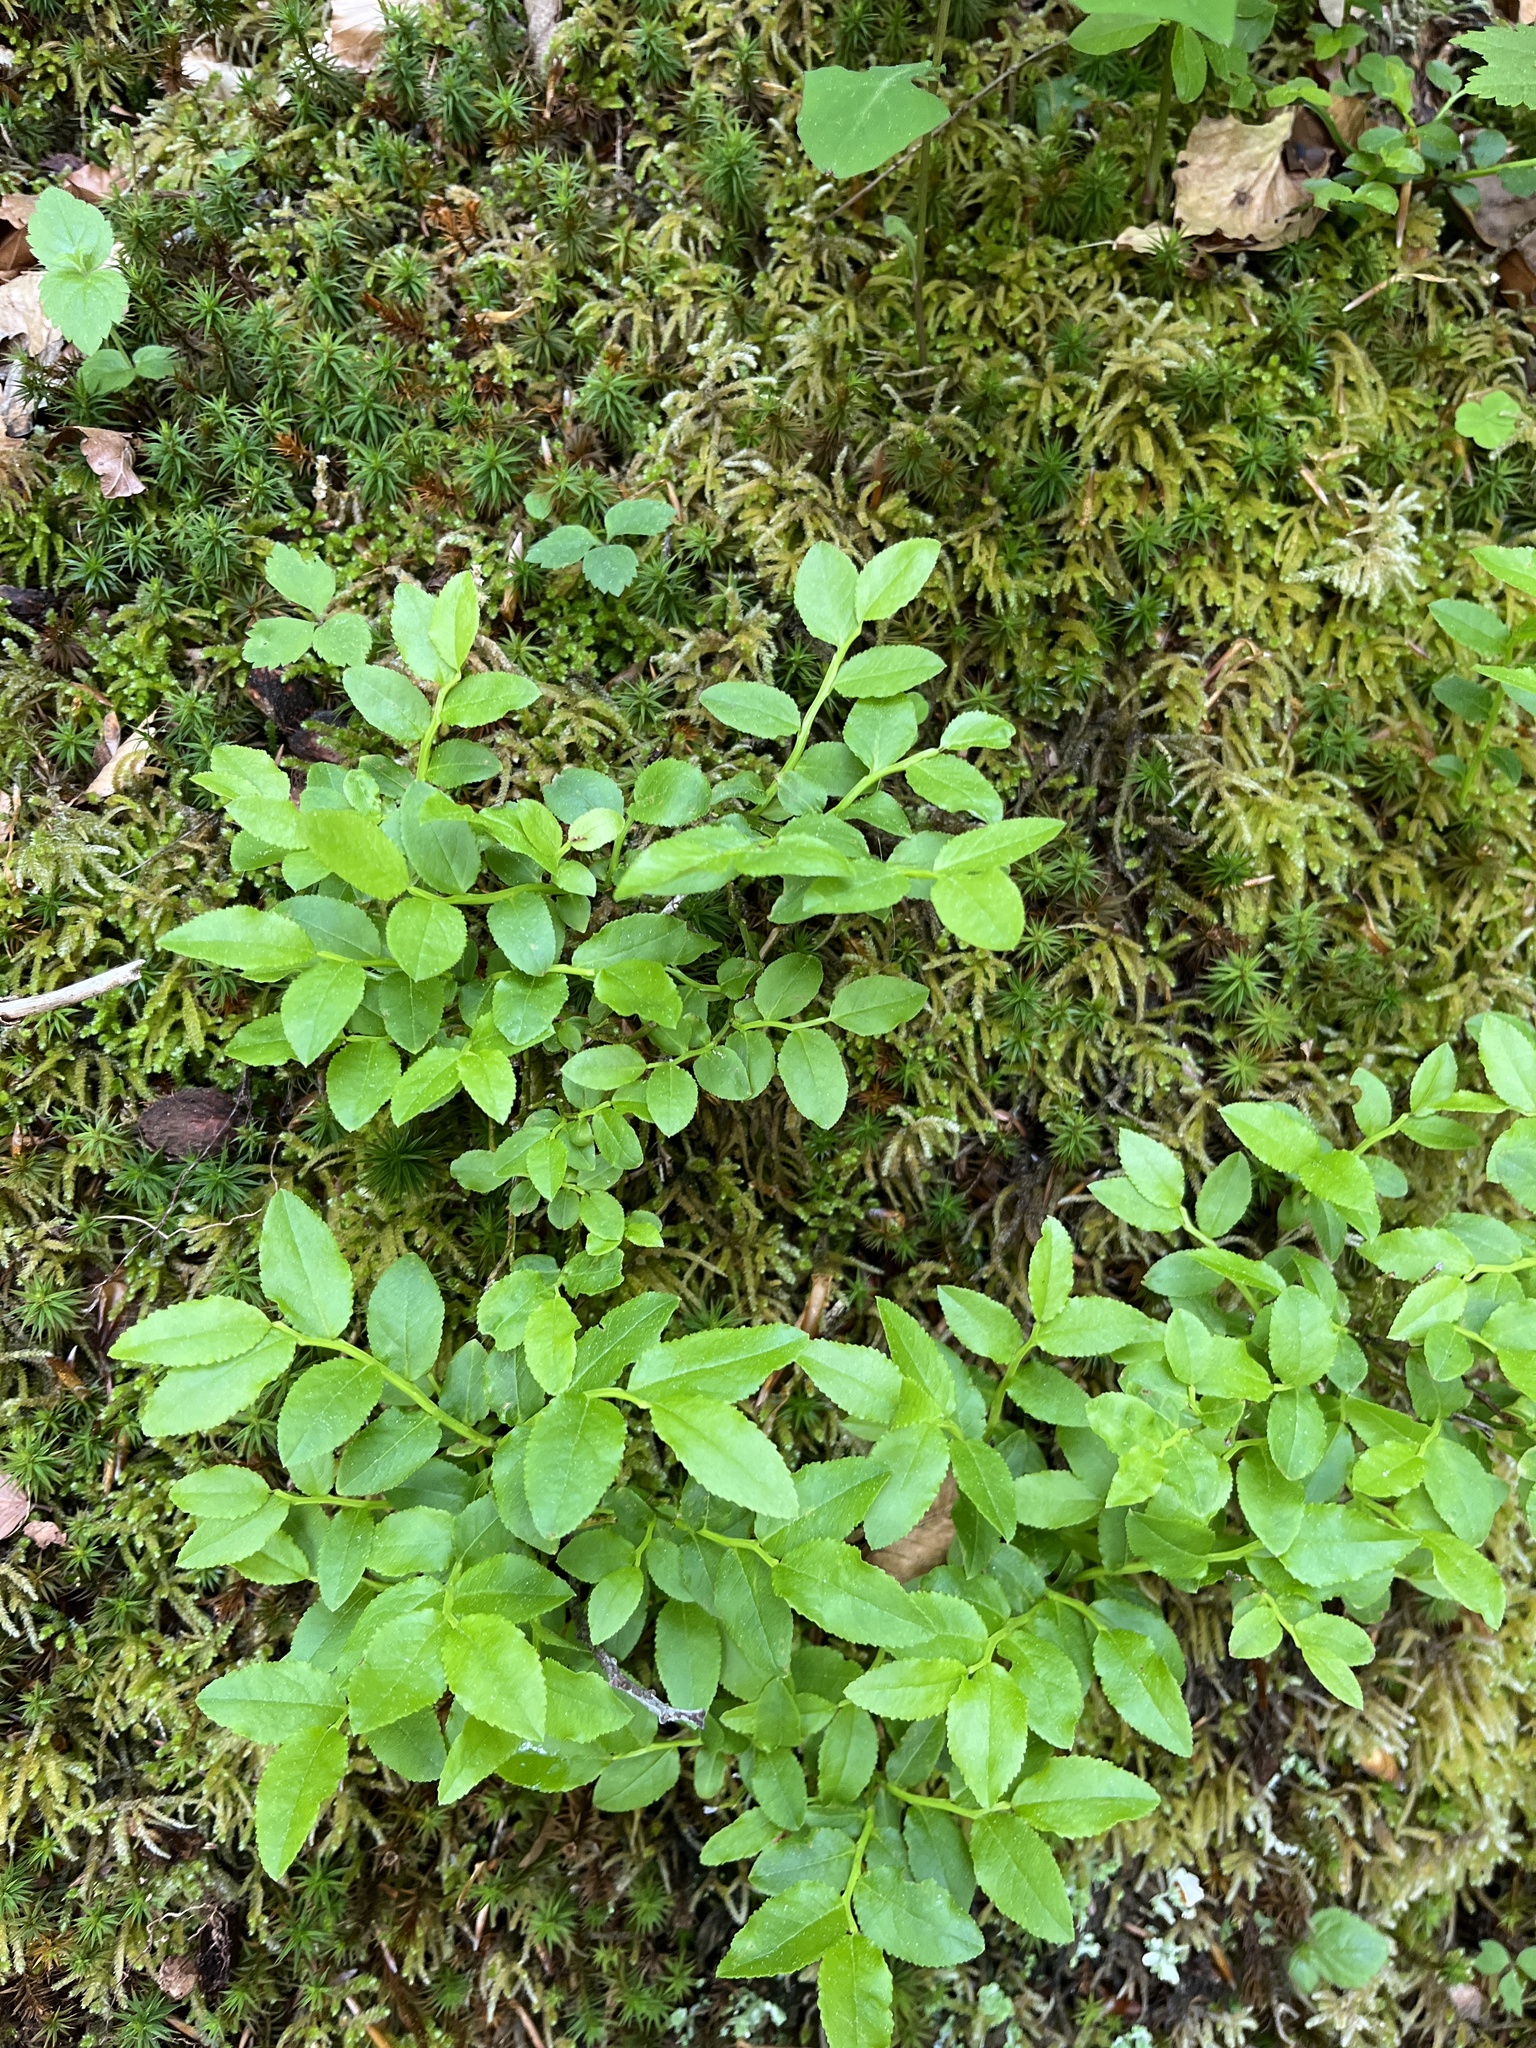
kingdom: Plantae
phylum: Tracheophyta
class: Magnoliopsida
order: Ericales
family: Ericaceae
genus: Vaccinium
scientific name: Vaccinium myrtillus
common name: Bilberry
